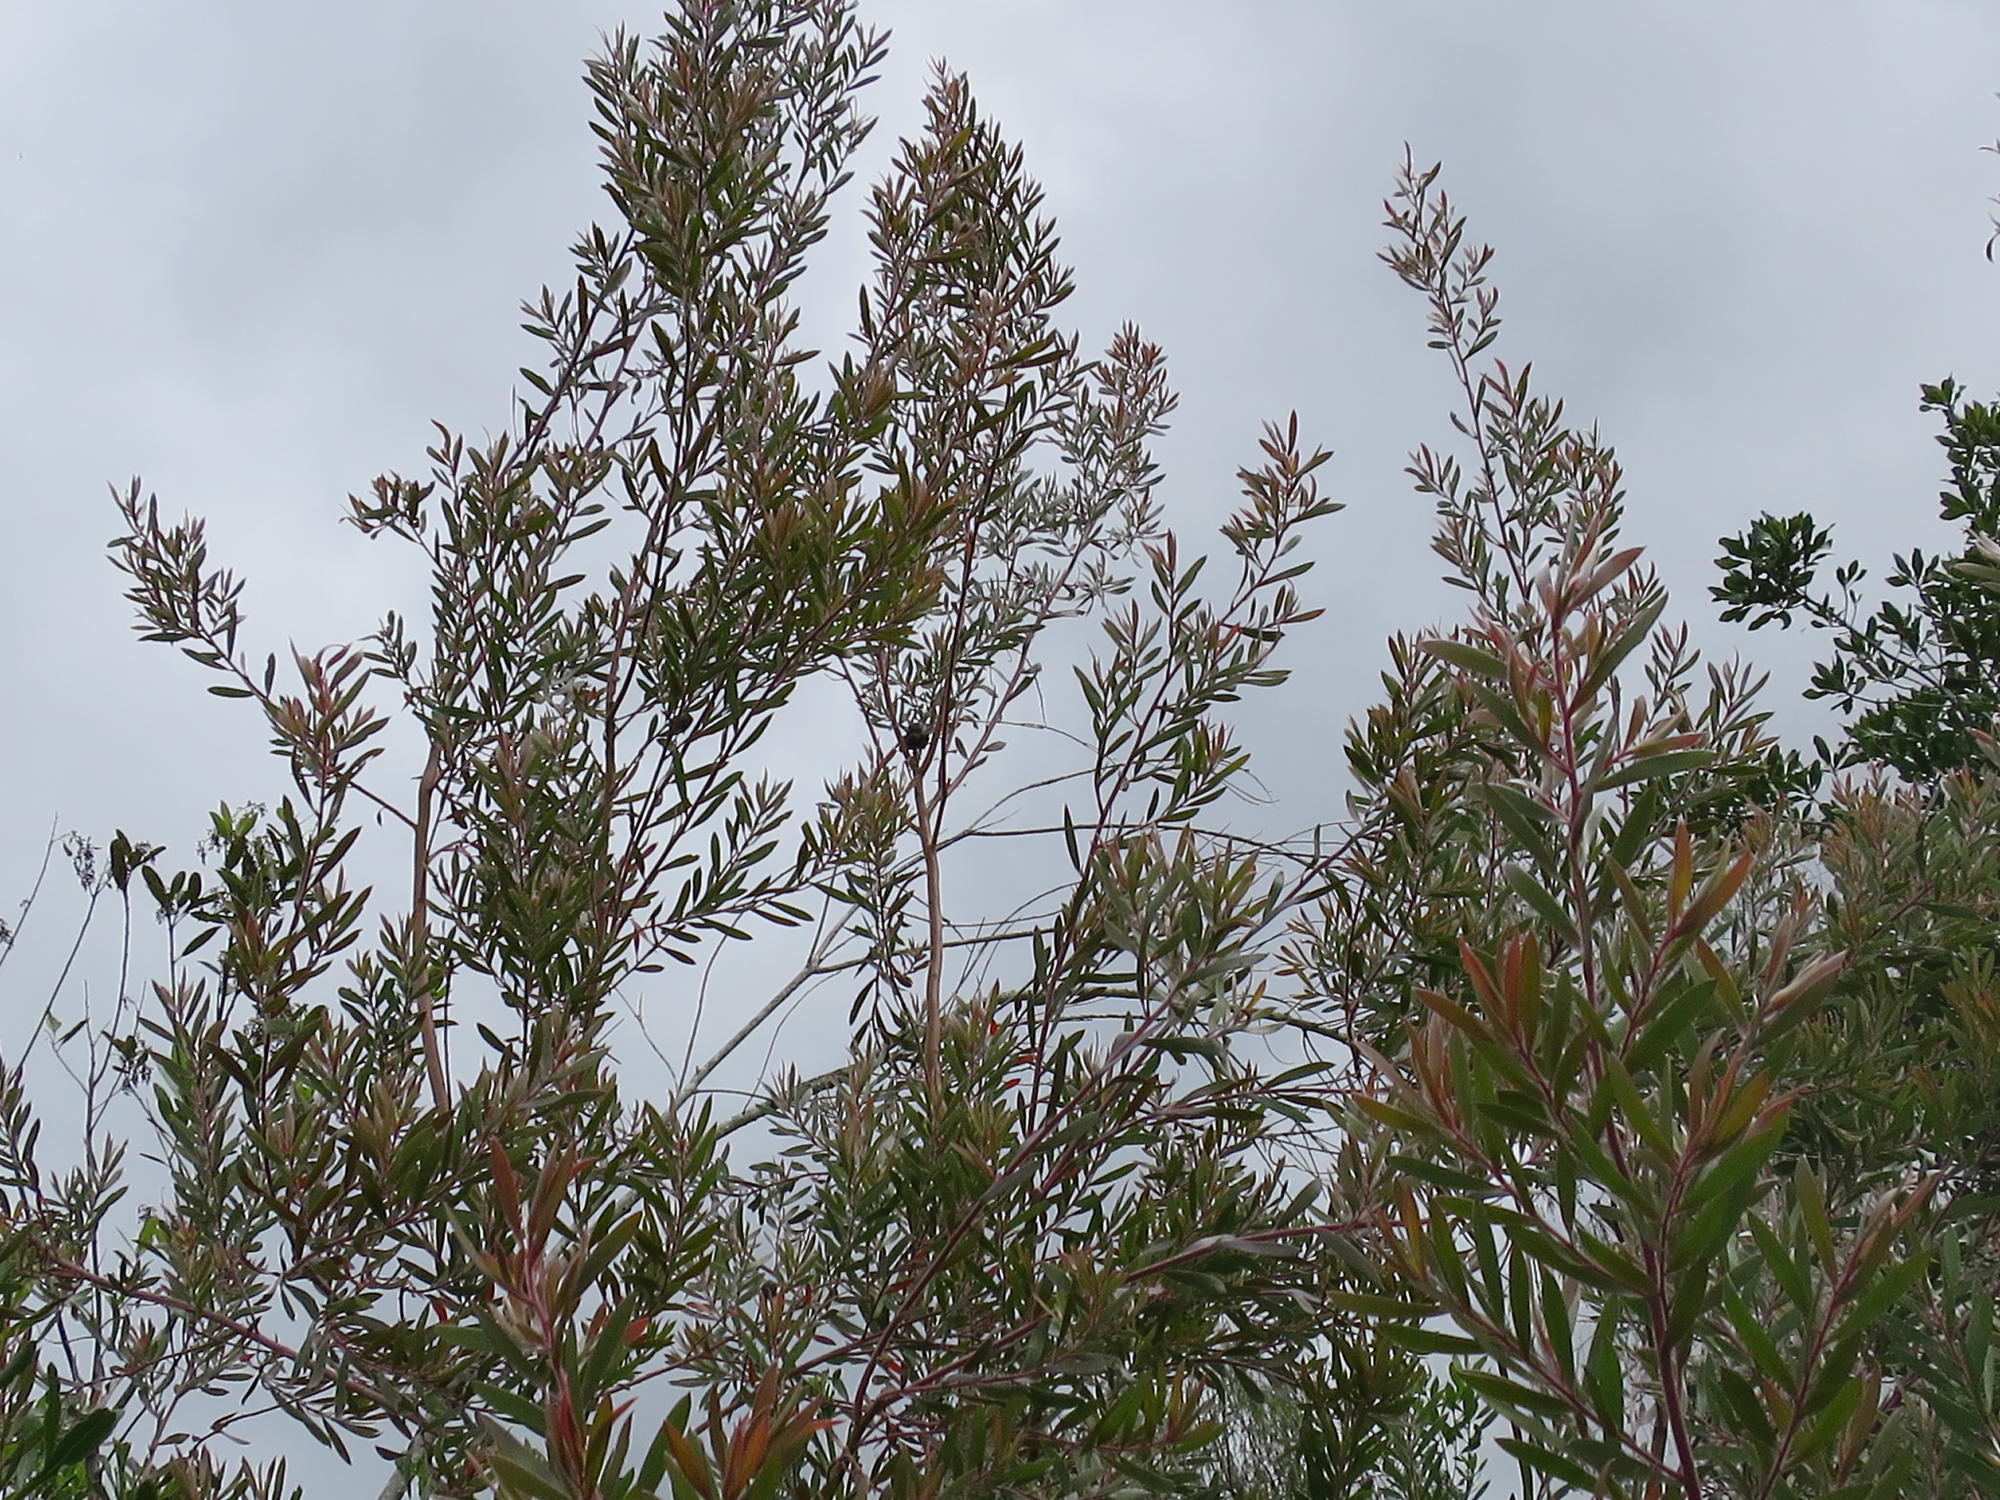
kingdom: Plantae
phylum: Tracheophyta
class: Magnoliopsida
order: Proteales
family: Proteaceae
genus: Leucadendron
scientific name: Leucadendron conicum
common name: Garden route conebush
